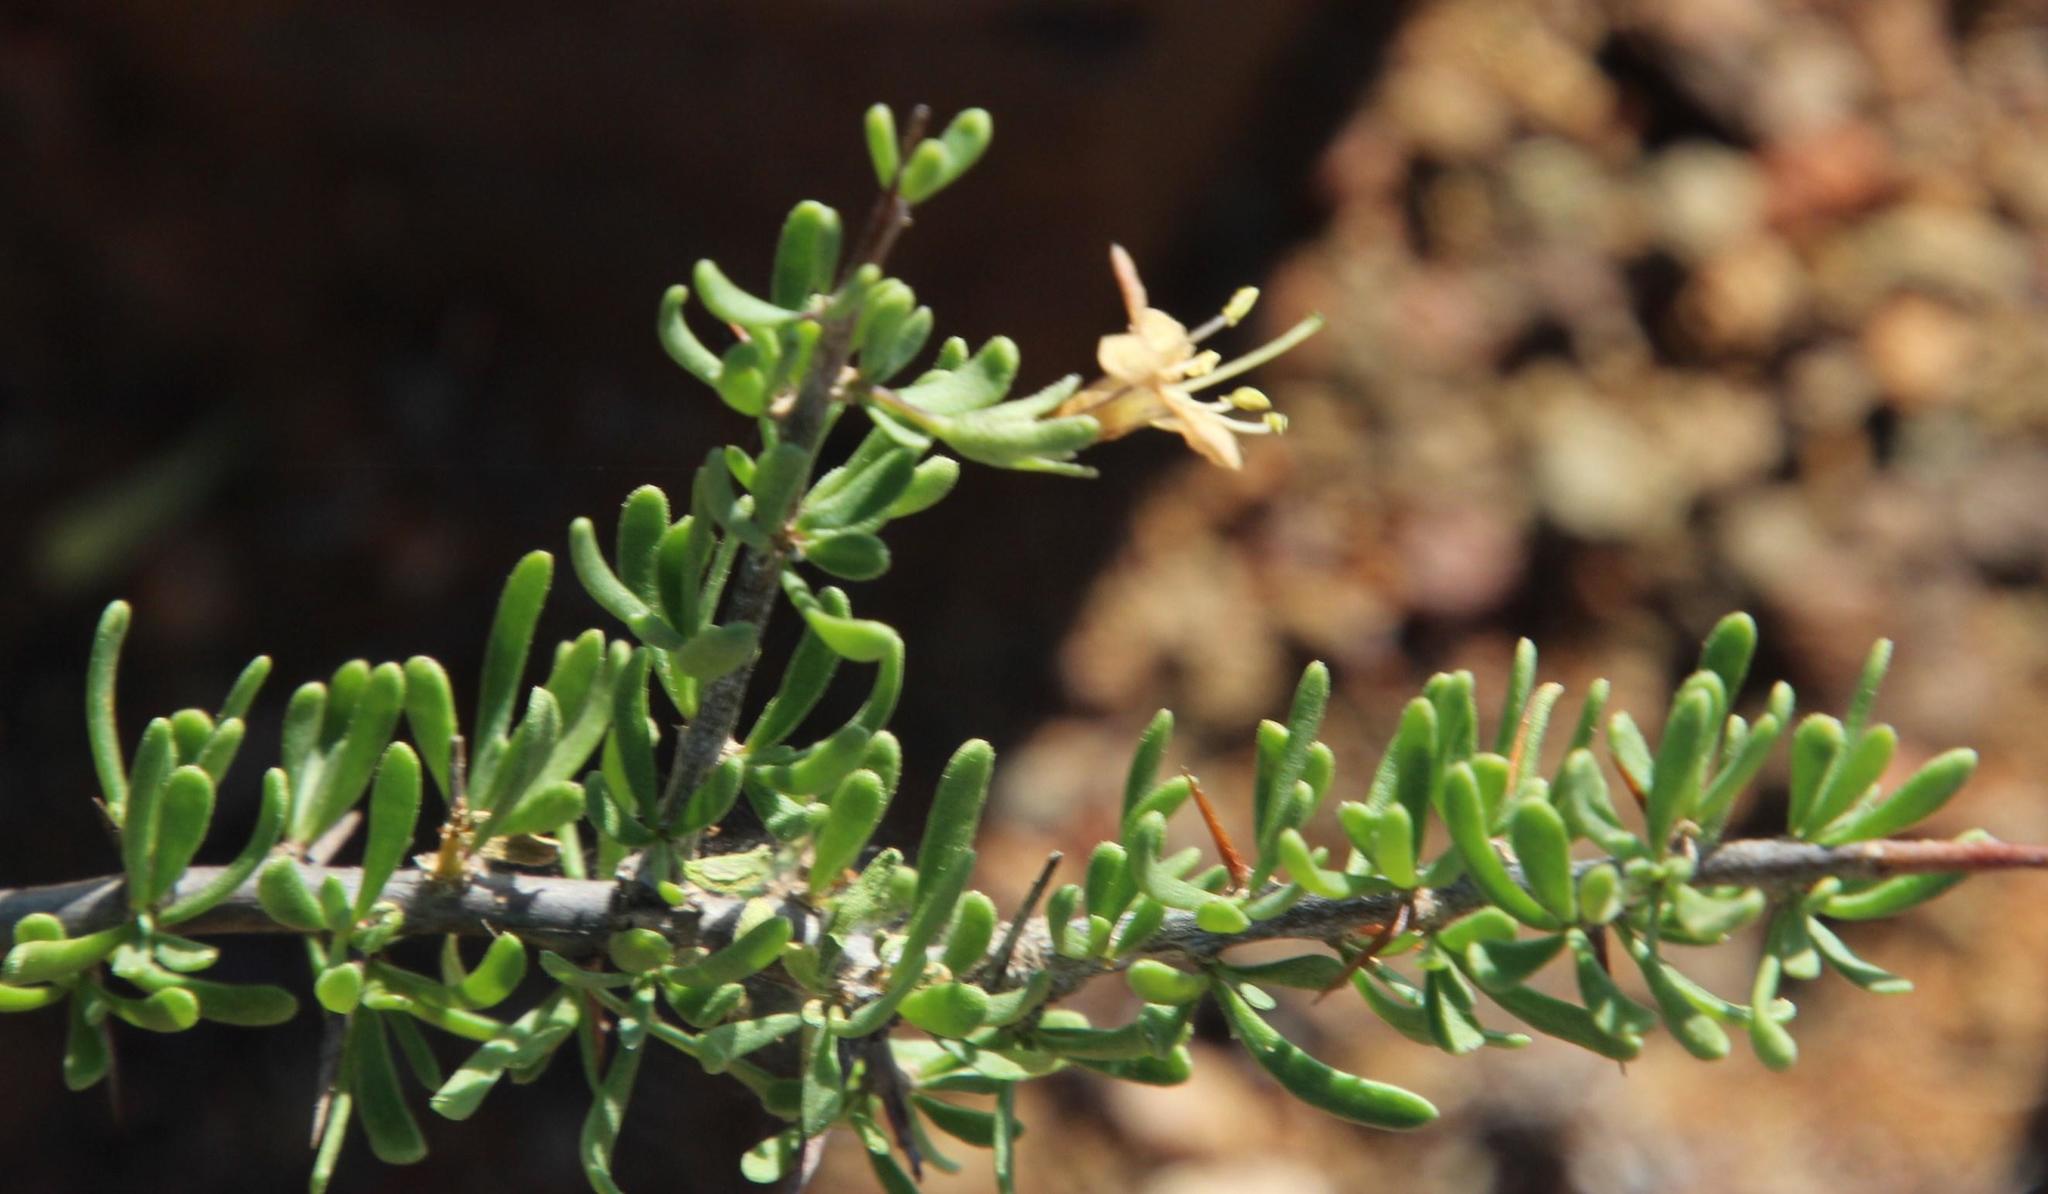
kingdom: Plantae
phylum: Tracheophyta
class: Magnoliopsida
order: Solanales
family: Solanaceae
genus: Lycium
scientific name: Lycium schizocalyx
